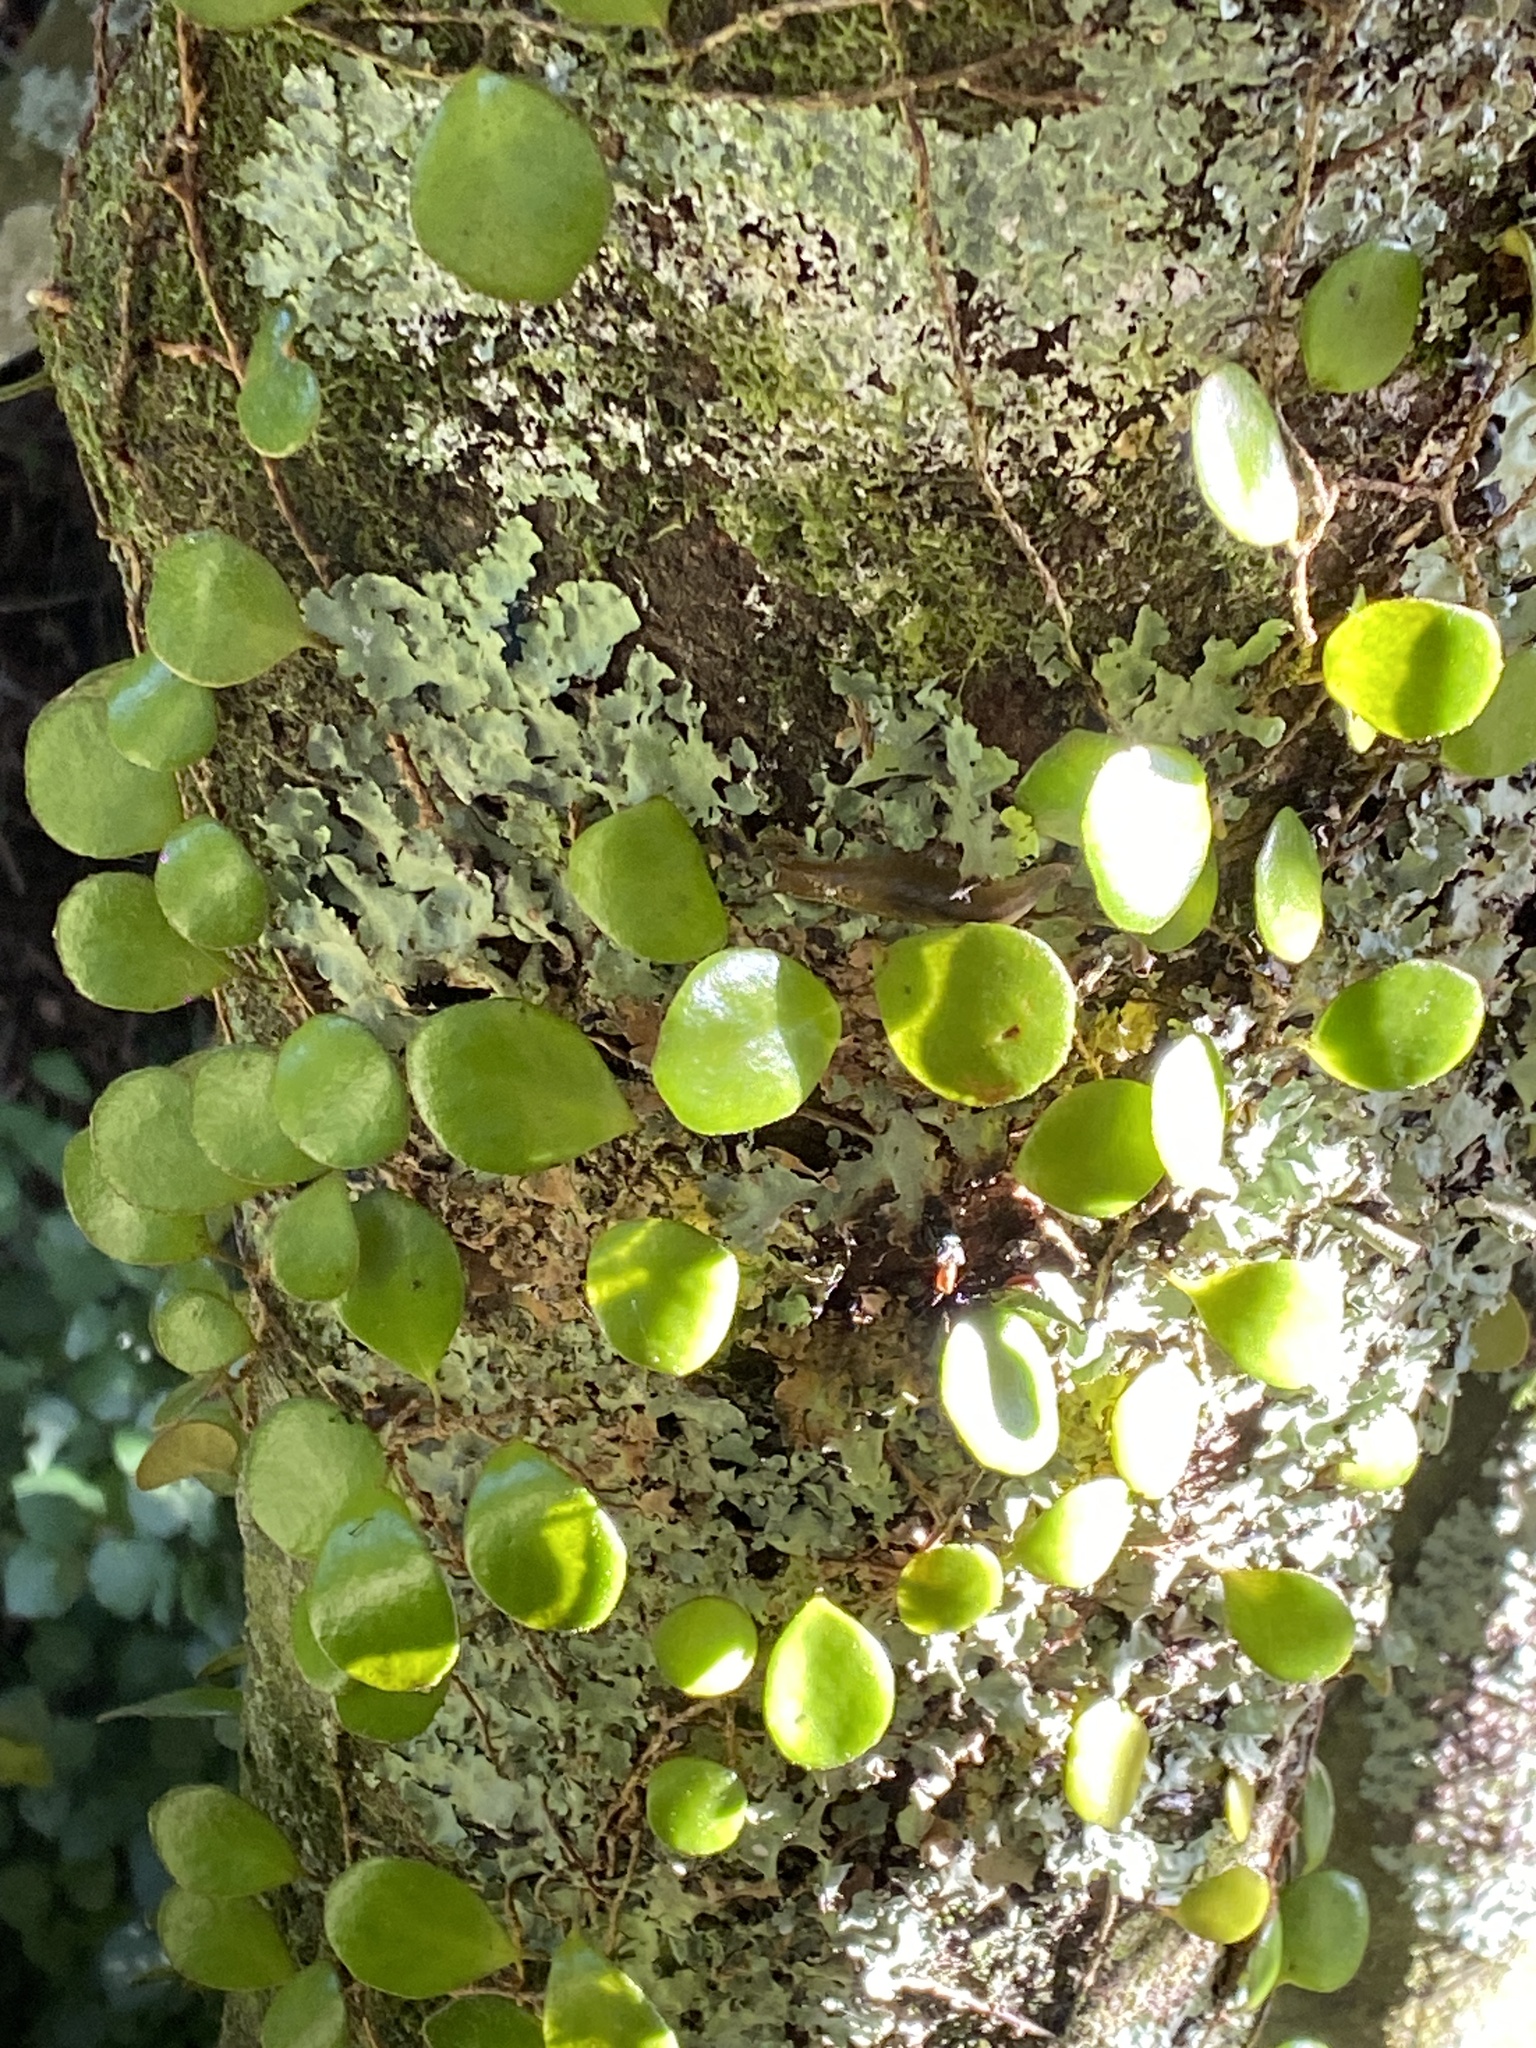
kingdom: Plantae
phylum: Tracheophyta
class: Polypodiopsida
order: Polypodiales
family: Polypodiaceae
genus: Pyrrosia
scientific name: Pyrrosia eleagnifolia
